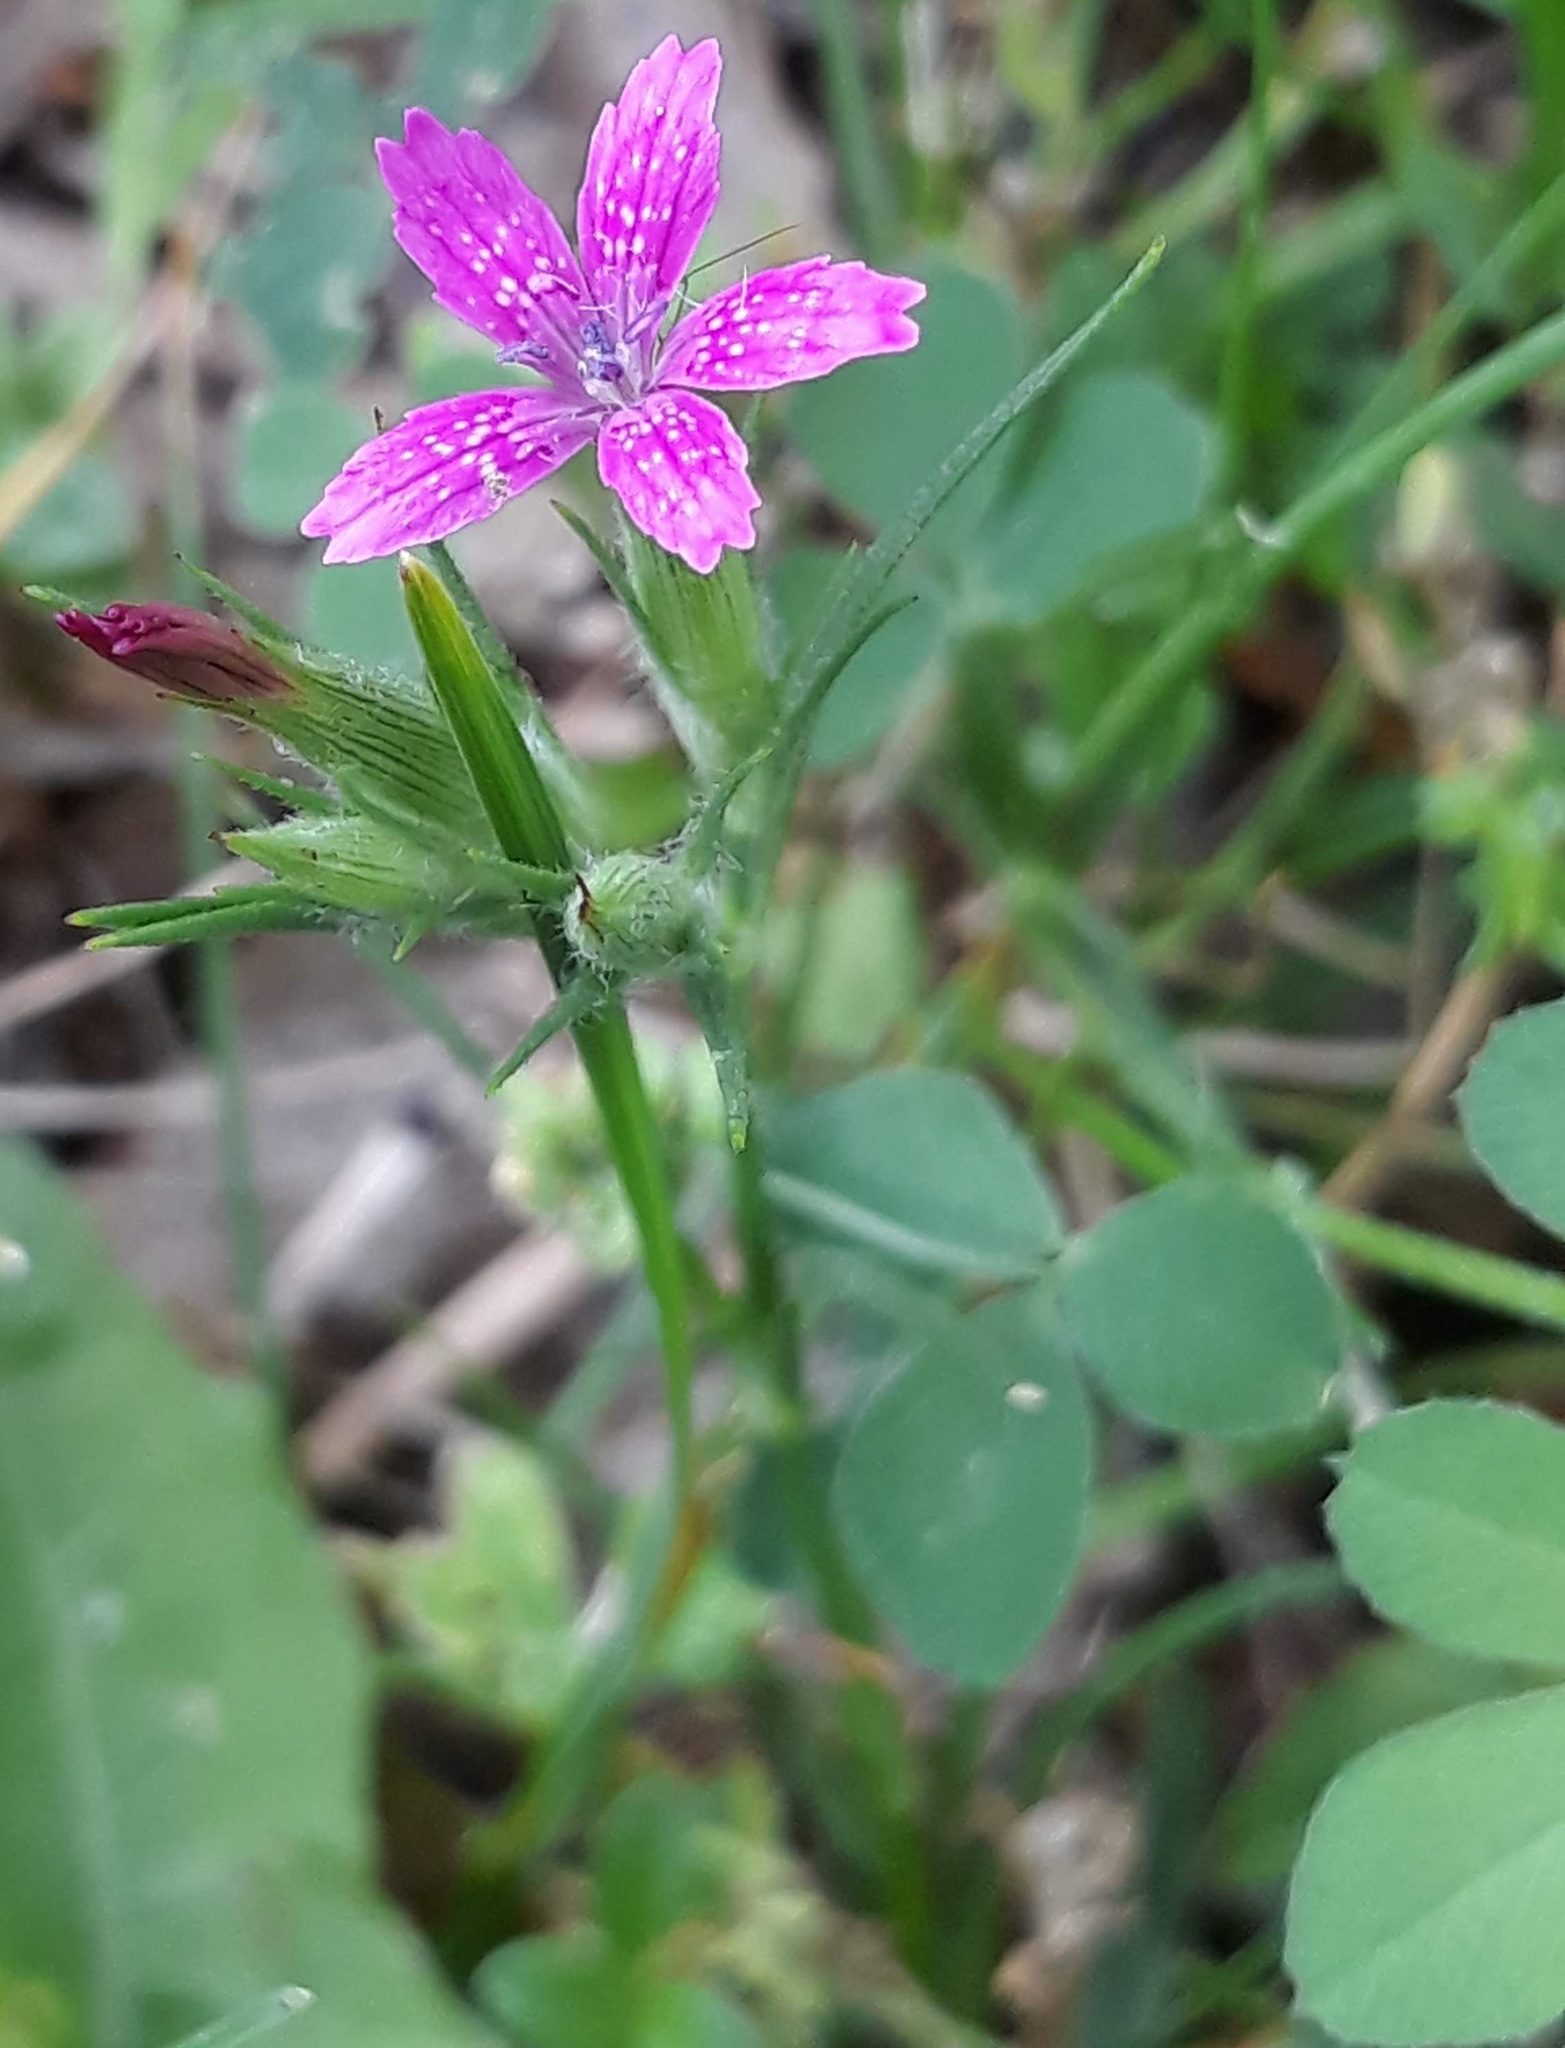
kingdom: Plantae
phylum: Tracheophyta
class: Magnoliopsida
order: Caryophyllales
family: Caryophyllaceae
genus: Dianthus
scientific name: Dianthus armeria
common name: Deptford pink
